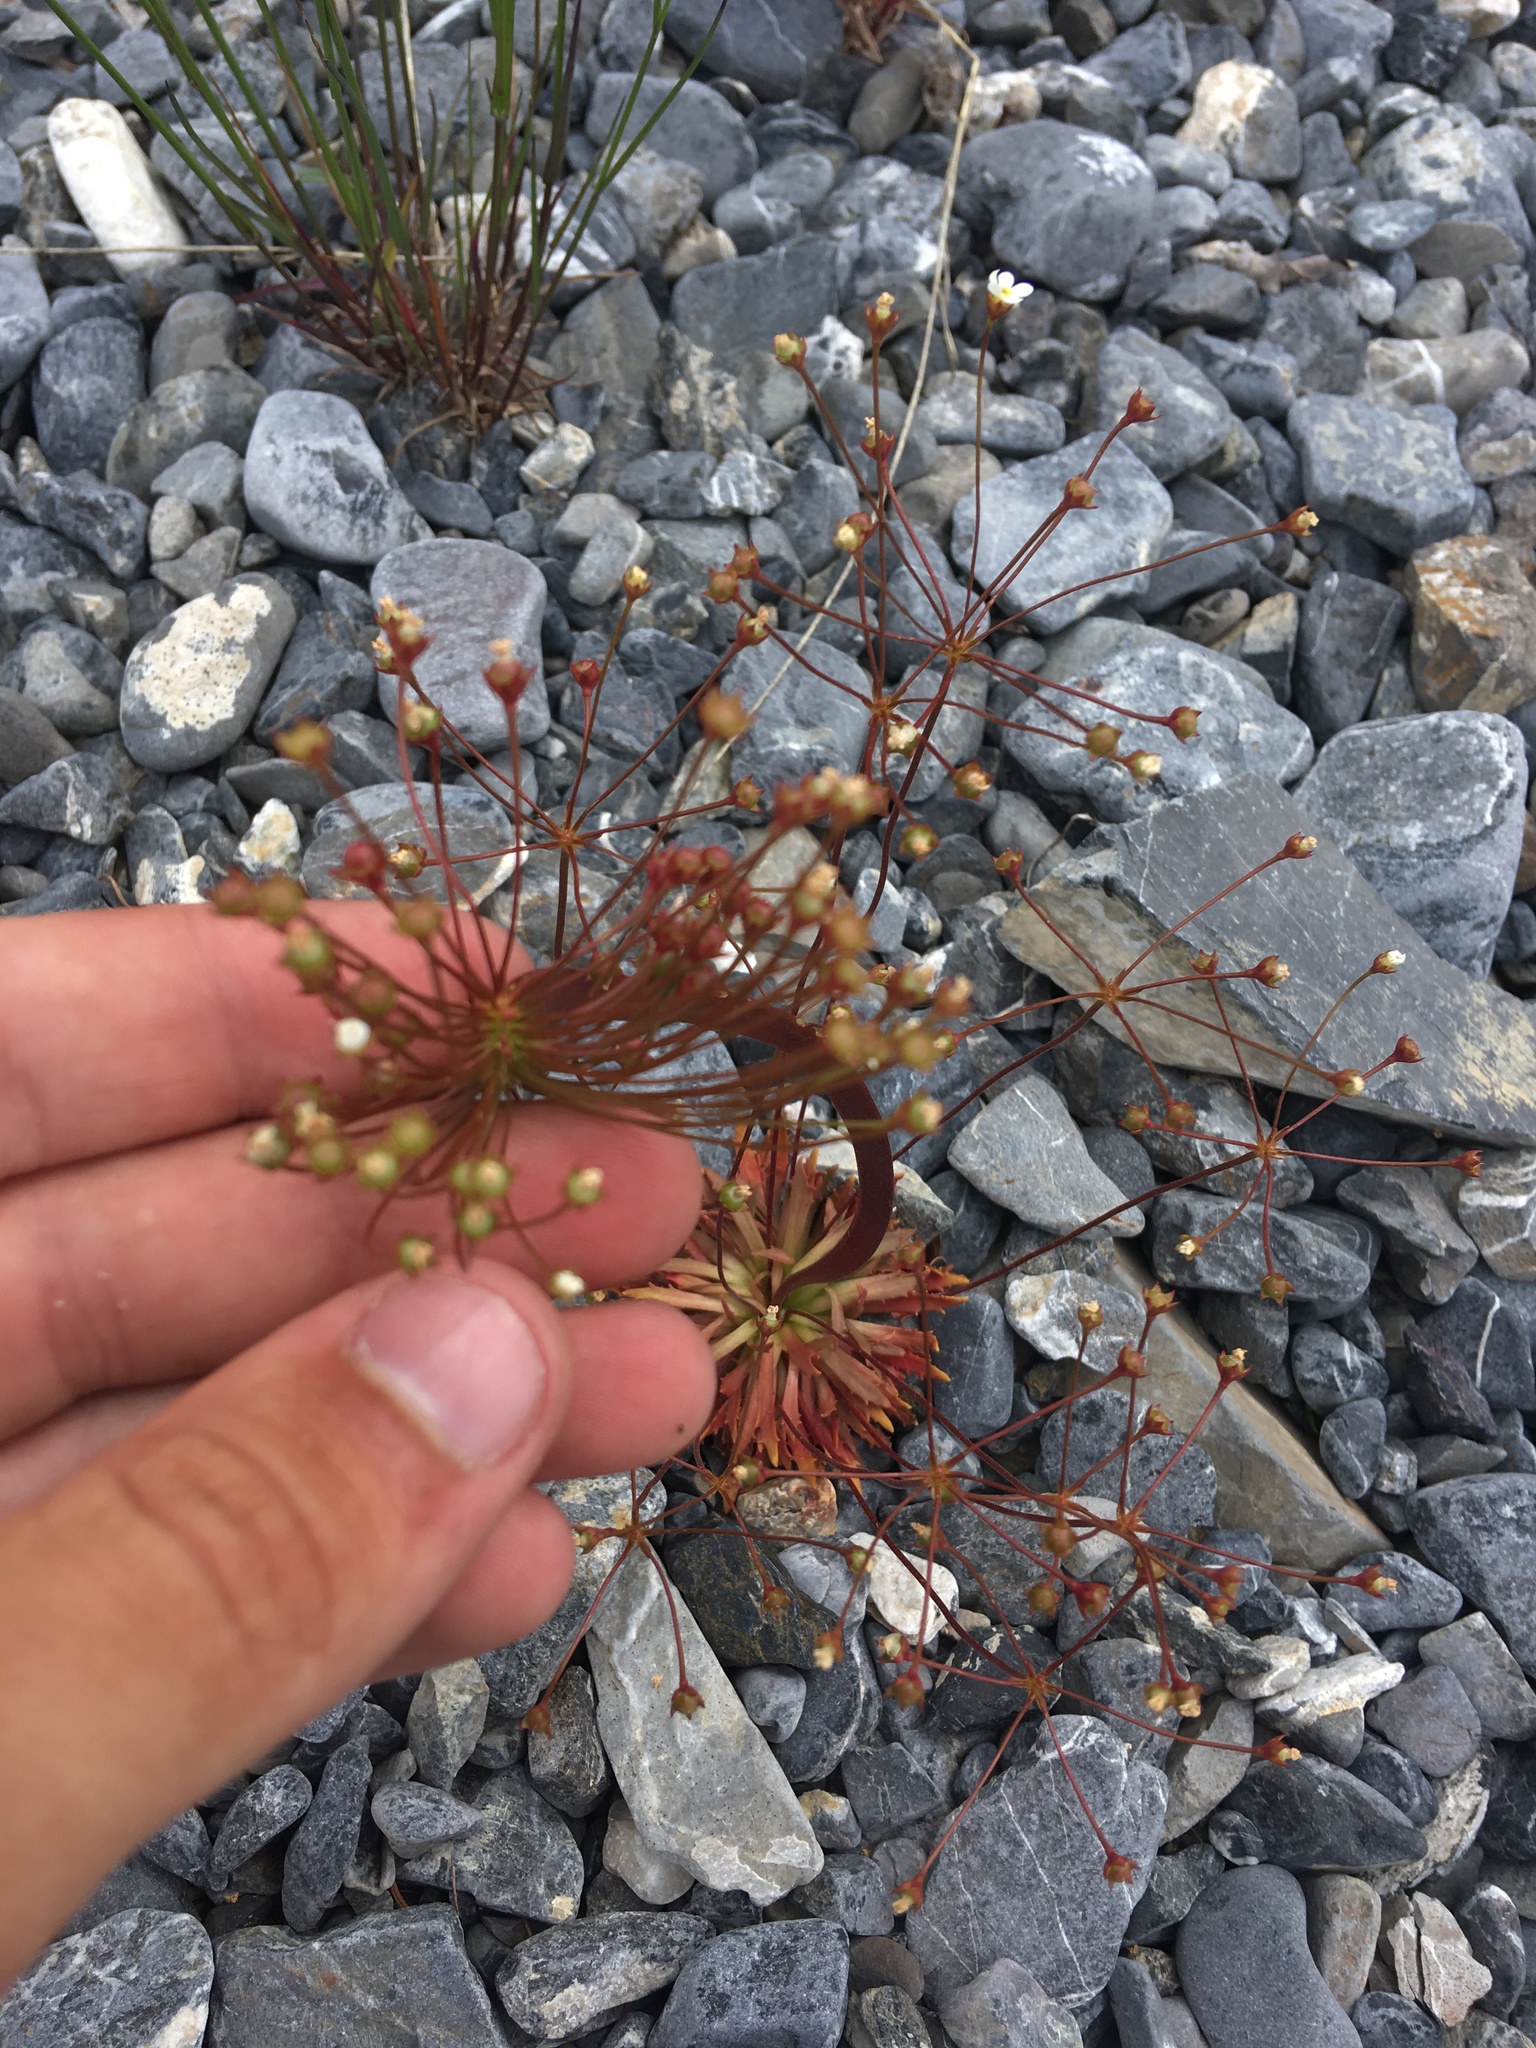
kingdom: Plantae
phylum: Tracheophyta
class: Magnoliopsida
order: Ericales
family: Primulaceae
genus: Androsace
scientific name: Androsace lactiflora
